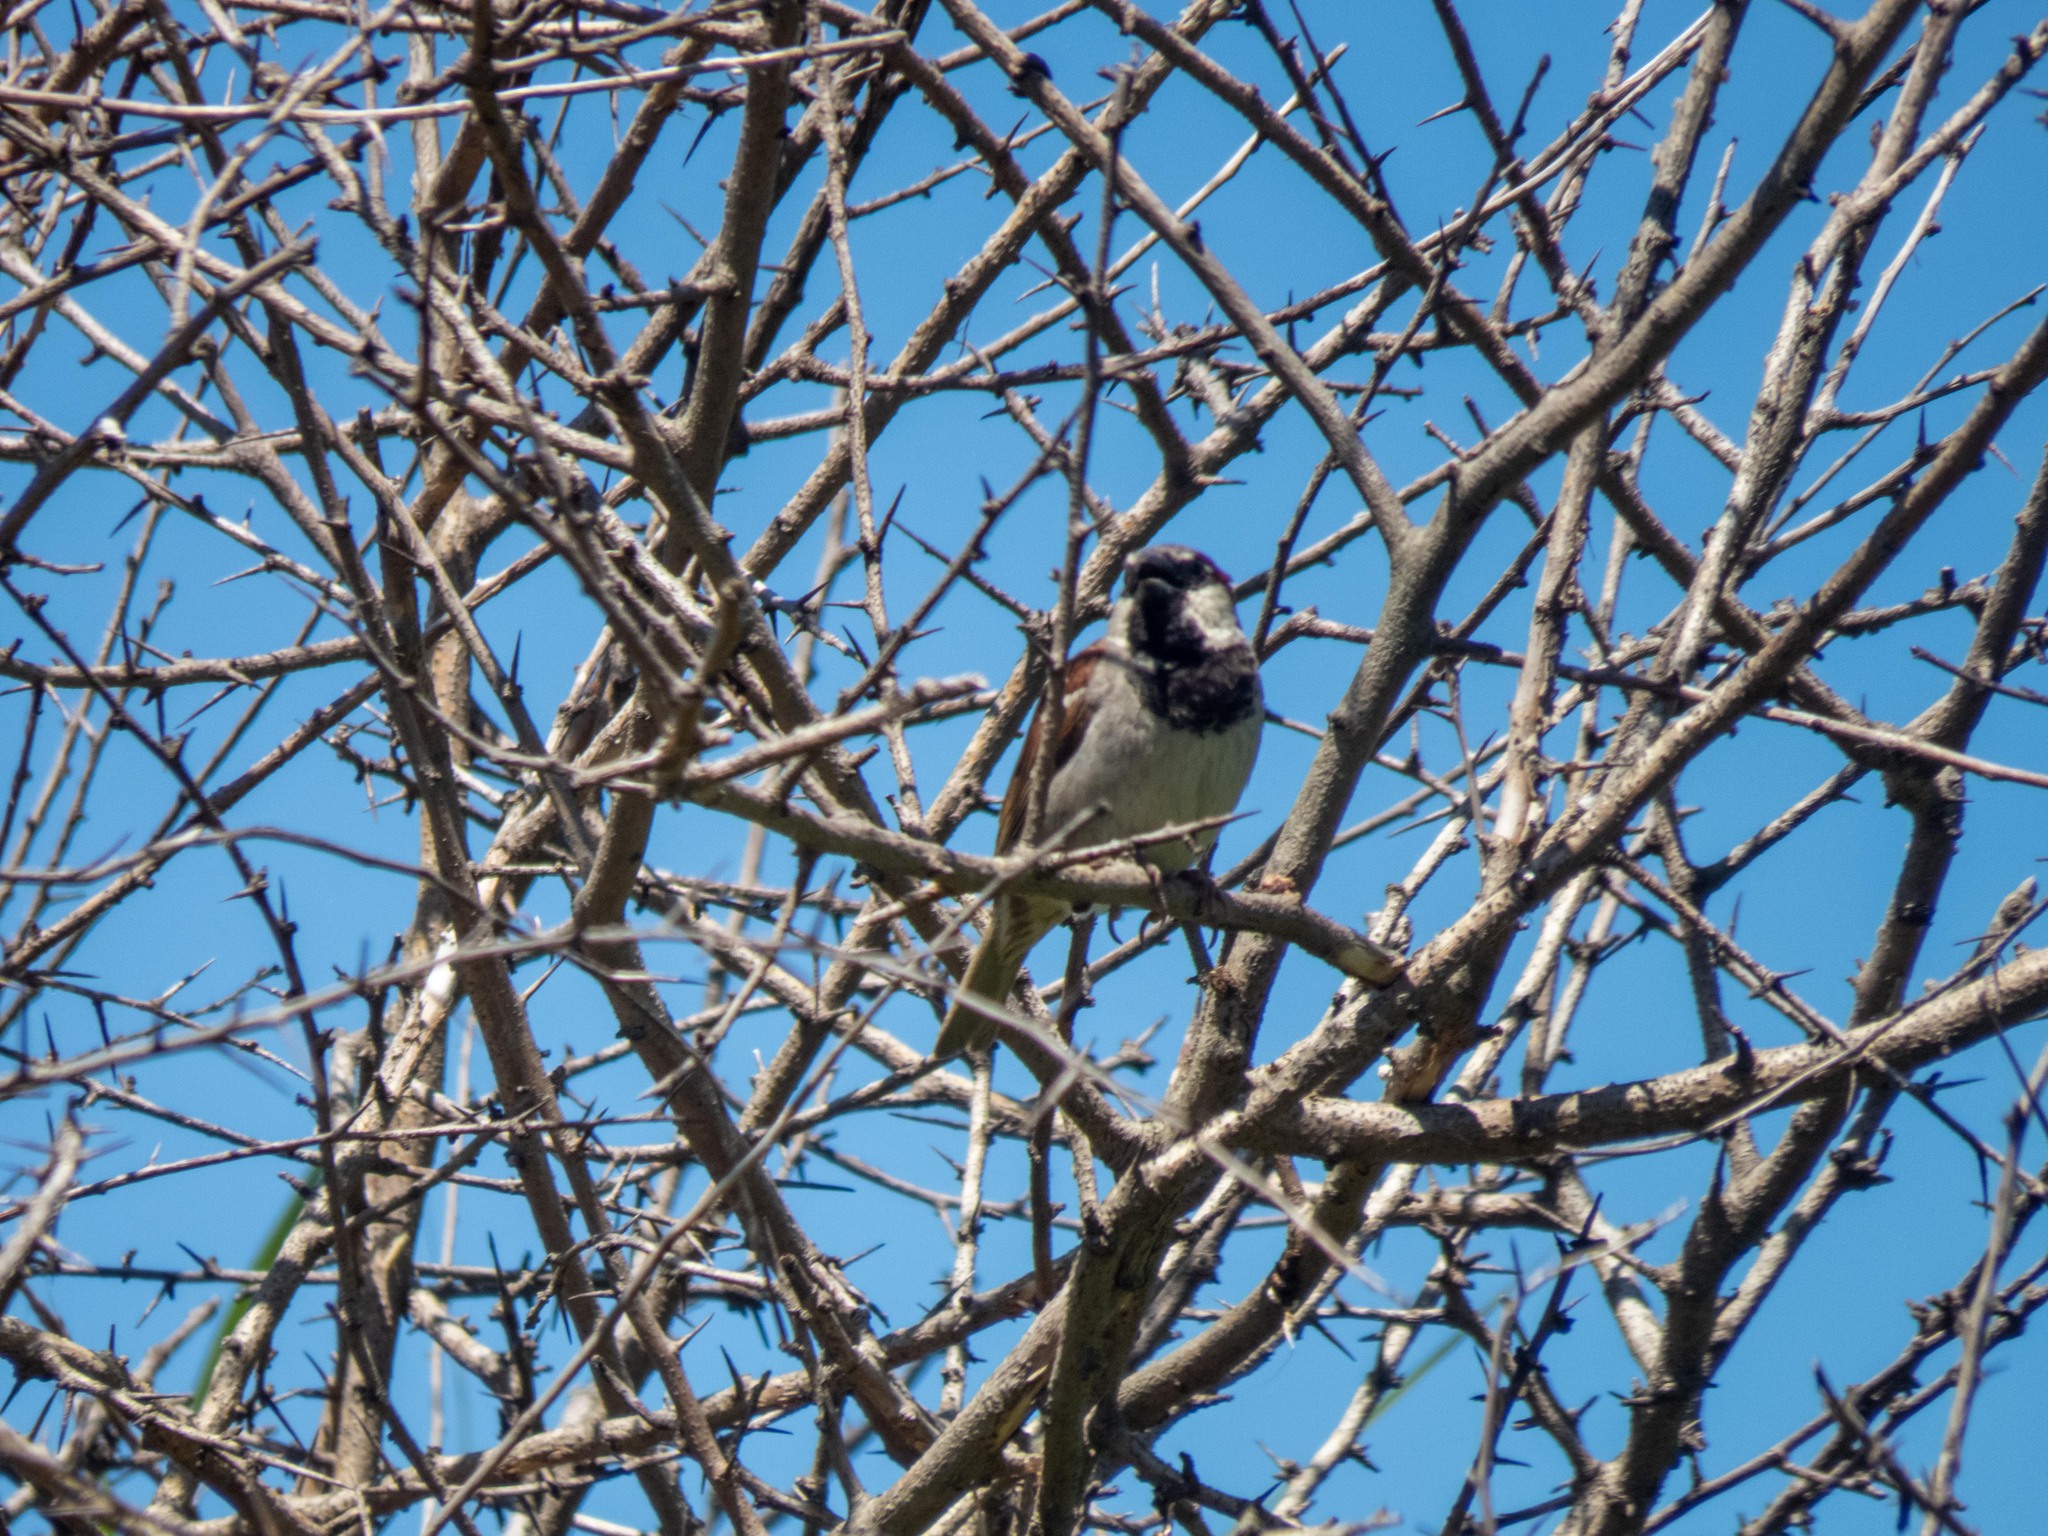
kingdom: Animalia
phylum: Chordata
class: Aves
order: Passeriformes
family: Passeridae
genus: Passer
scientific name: Passer domesticus
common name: House sparrow
